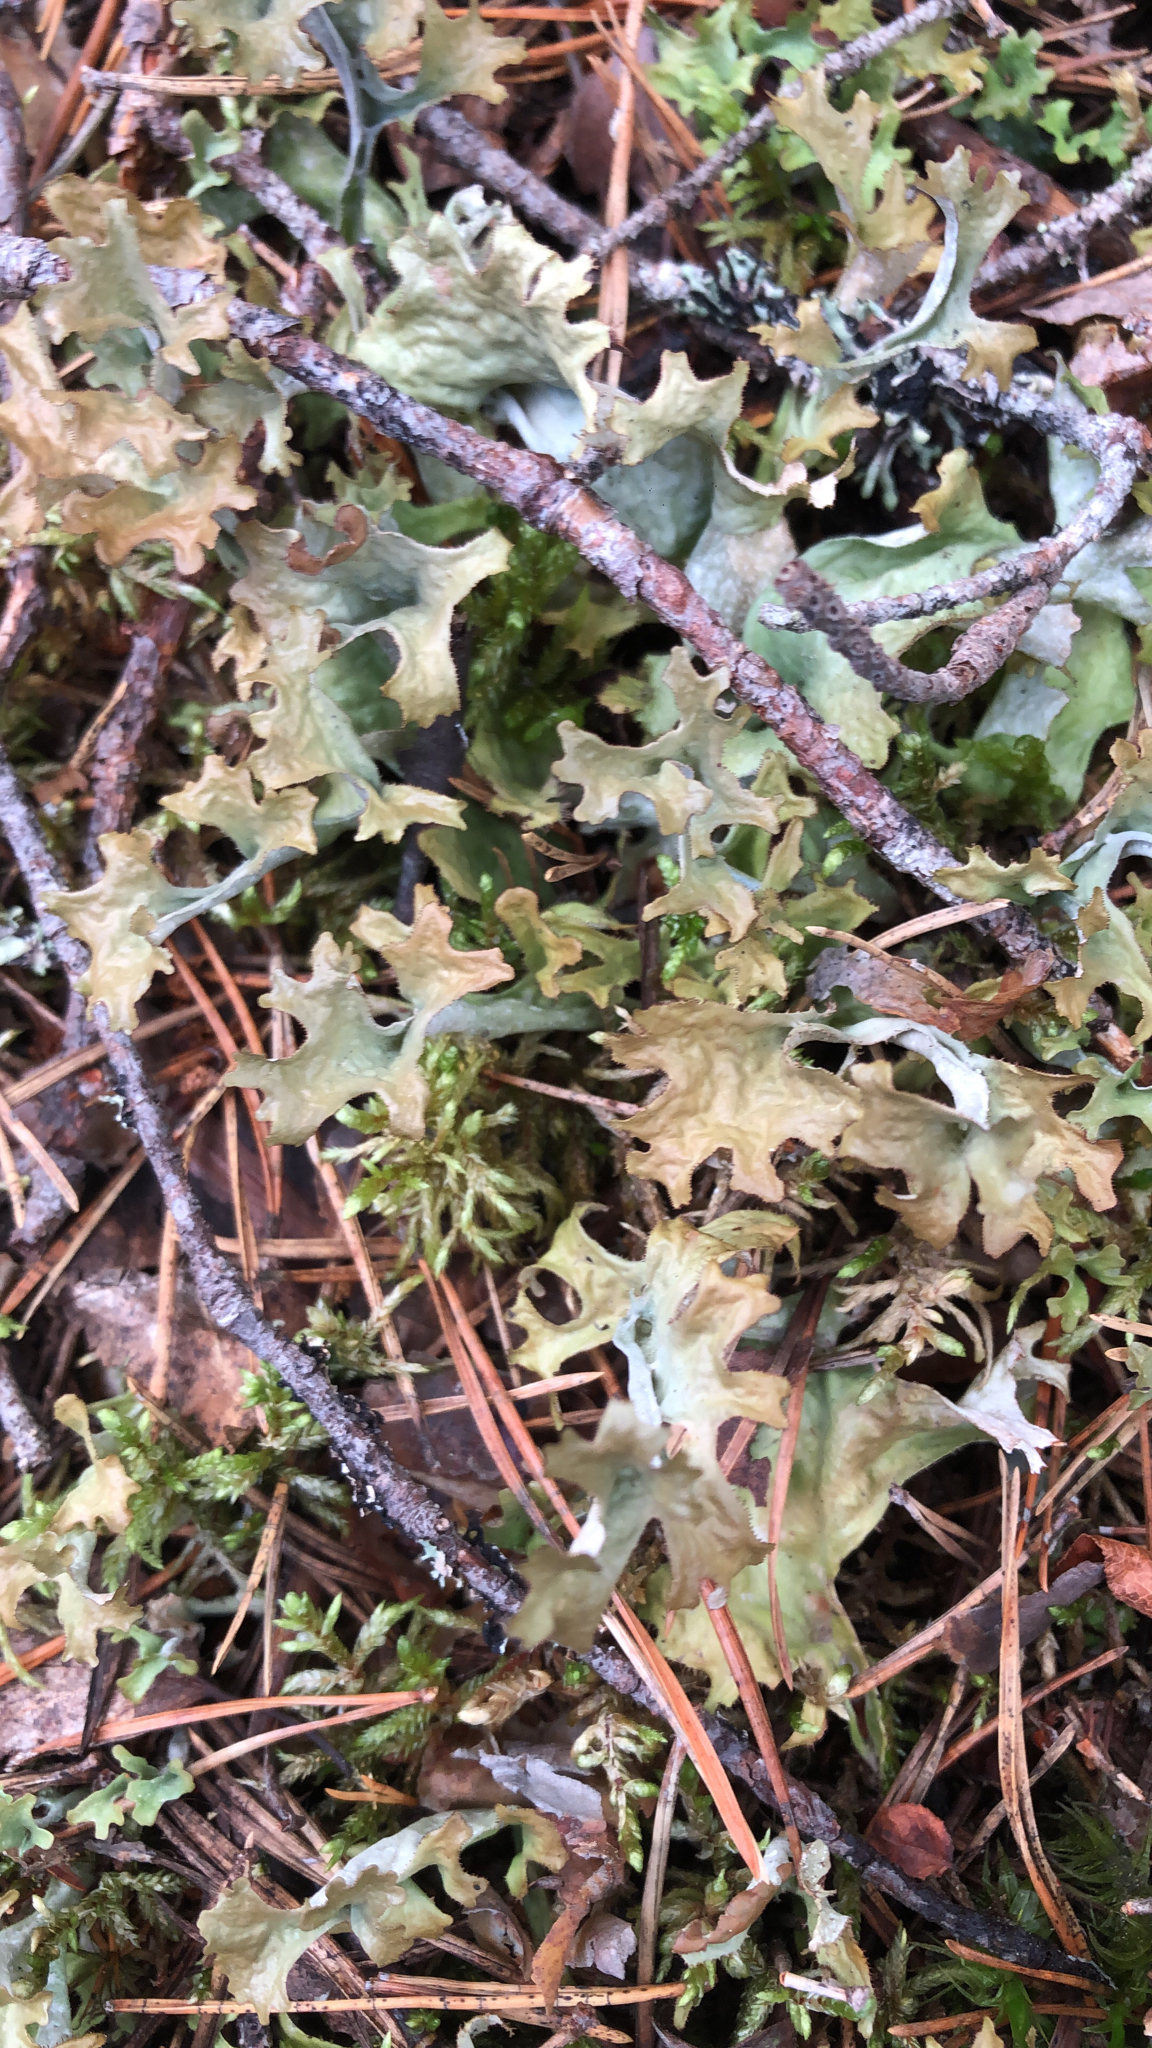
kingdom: Fungi
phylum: Ascomycota
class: Lecanoromycetes
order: Lecanorales
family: Parmeliaceae
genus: Cetraria
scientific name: Cetraria islandica
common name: Iceland lichen
